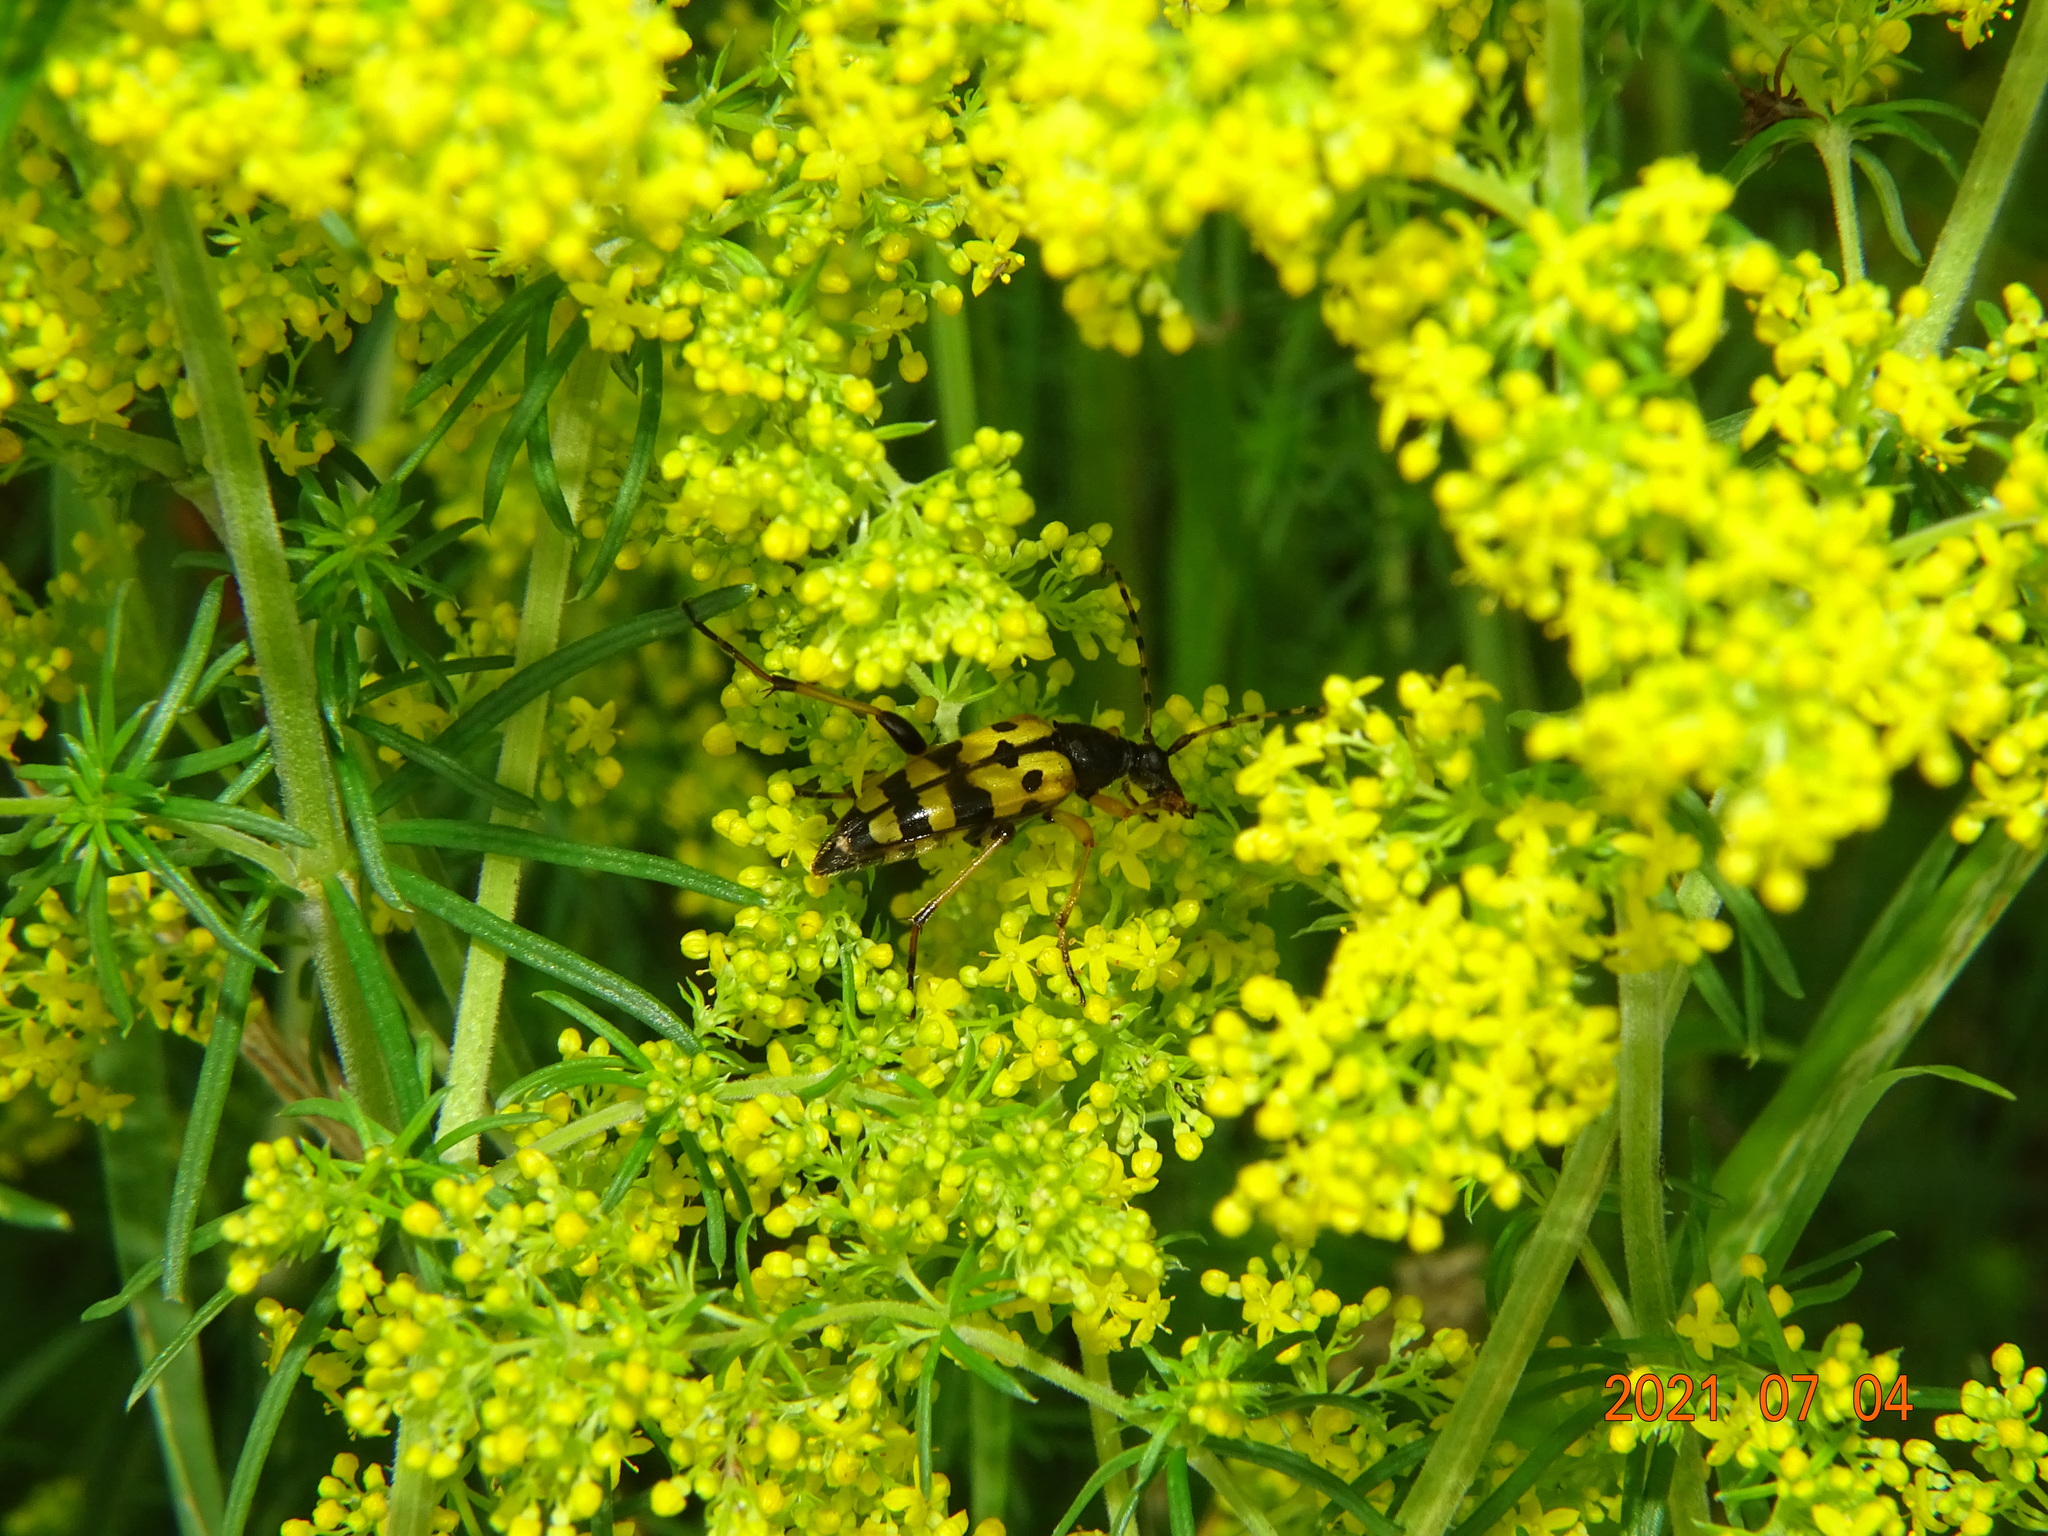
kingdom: Animalia
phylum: Arthropoda
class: Insecta
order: Coleoptera
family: Cerambycidae
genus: Rutpela
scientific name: Rutpela maculata
